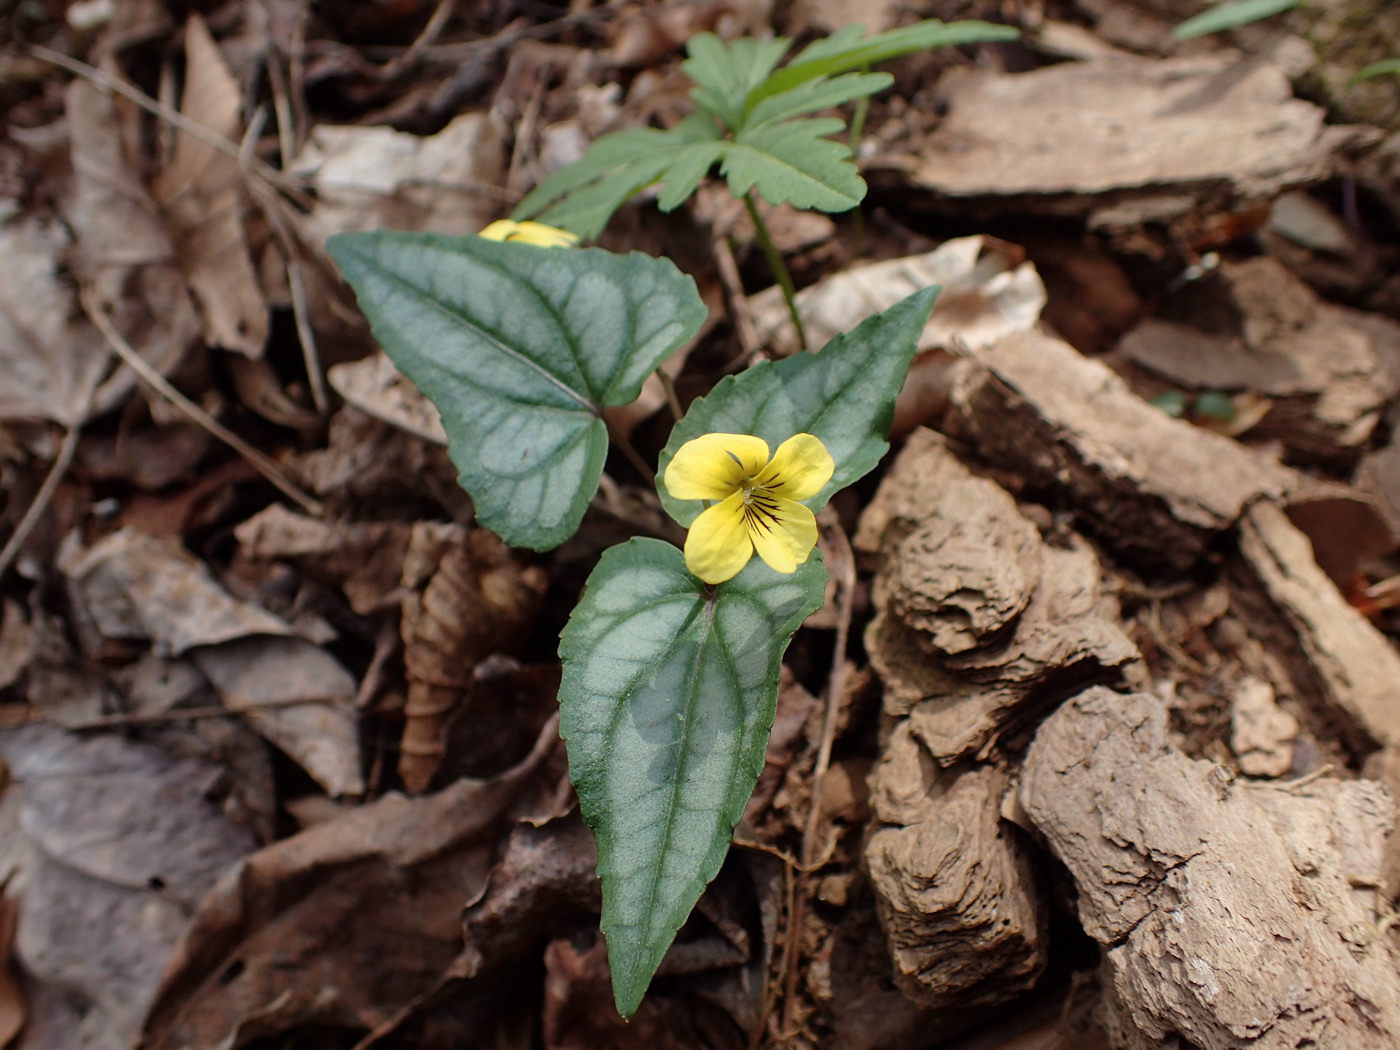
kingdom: Plantae
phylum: Tracheophyta
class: Magnoliopsida
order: Malpighiales
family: Violaceae
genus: Viola
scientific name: Viola hastata
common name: Spear-leaf violet
